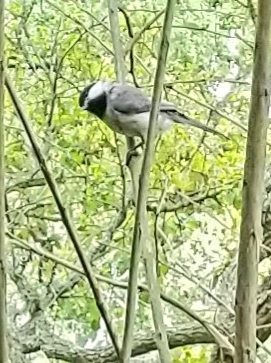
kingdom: Animalia
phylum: Chordata
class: Aves
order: Passeriformes
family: Paridae
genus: Poecile
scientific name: Poecile carolinensis
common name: Carolina chickadee
